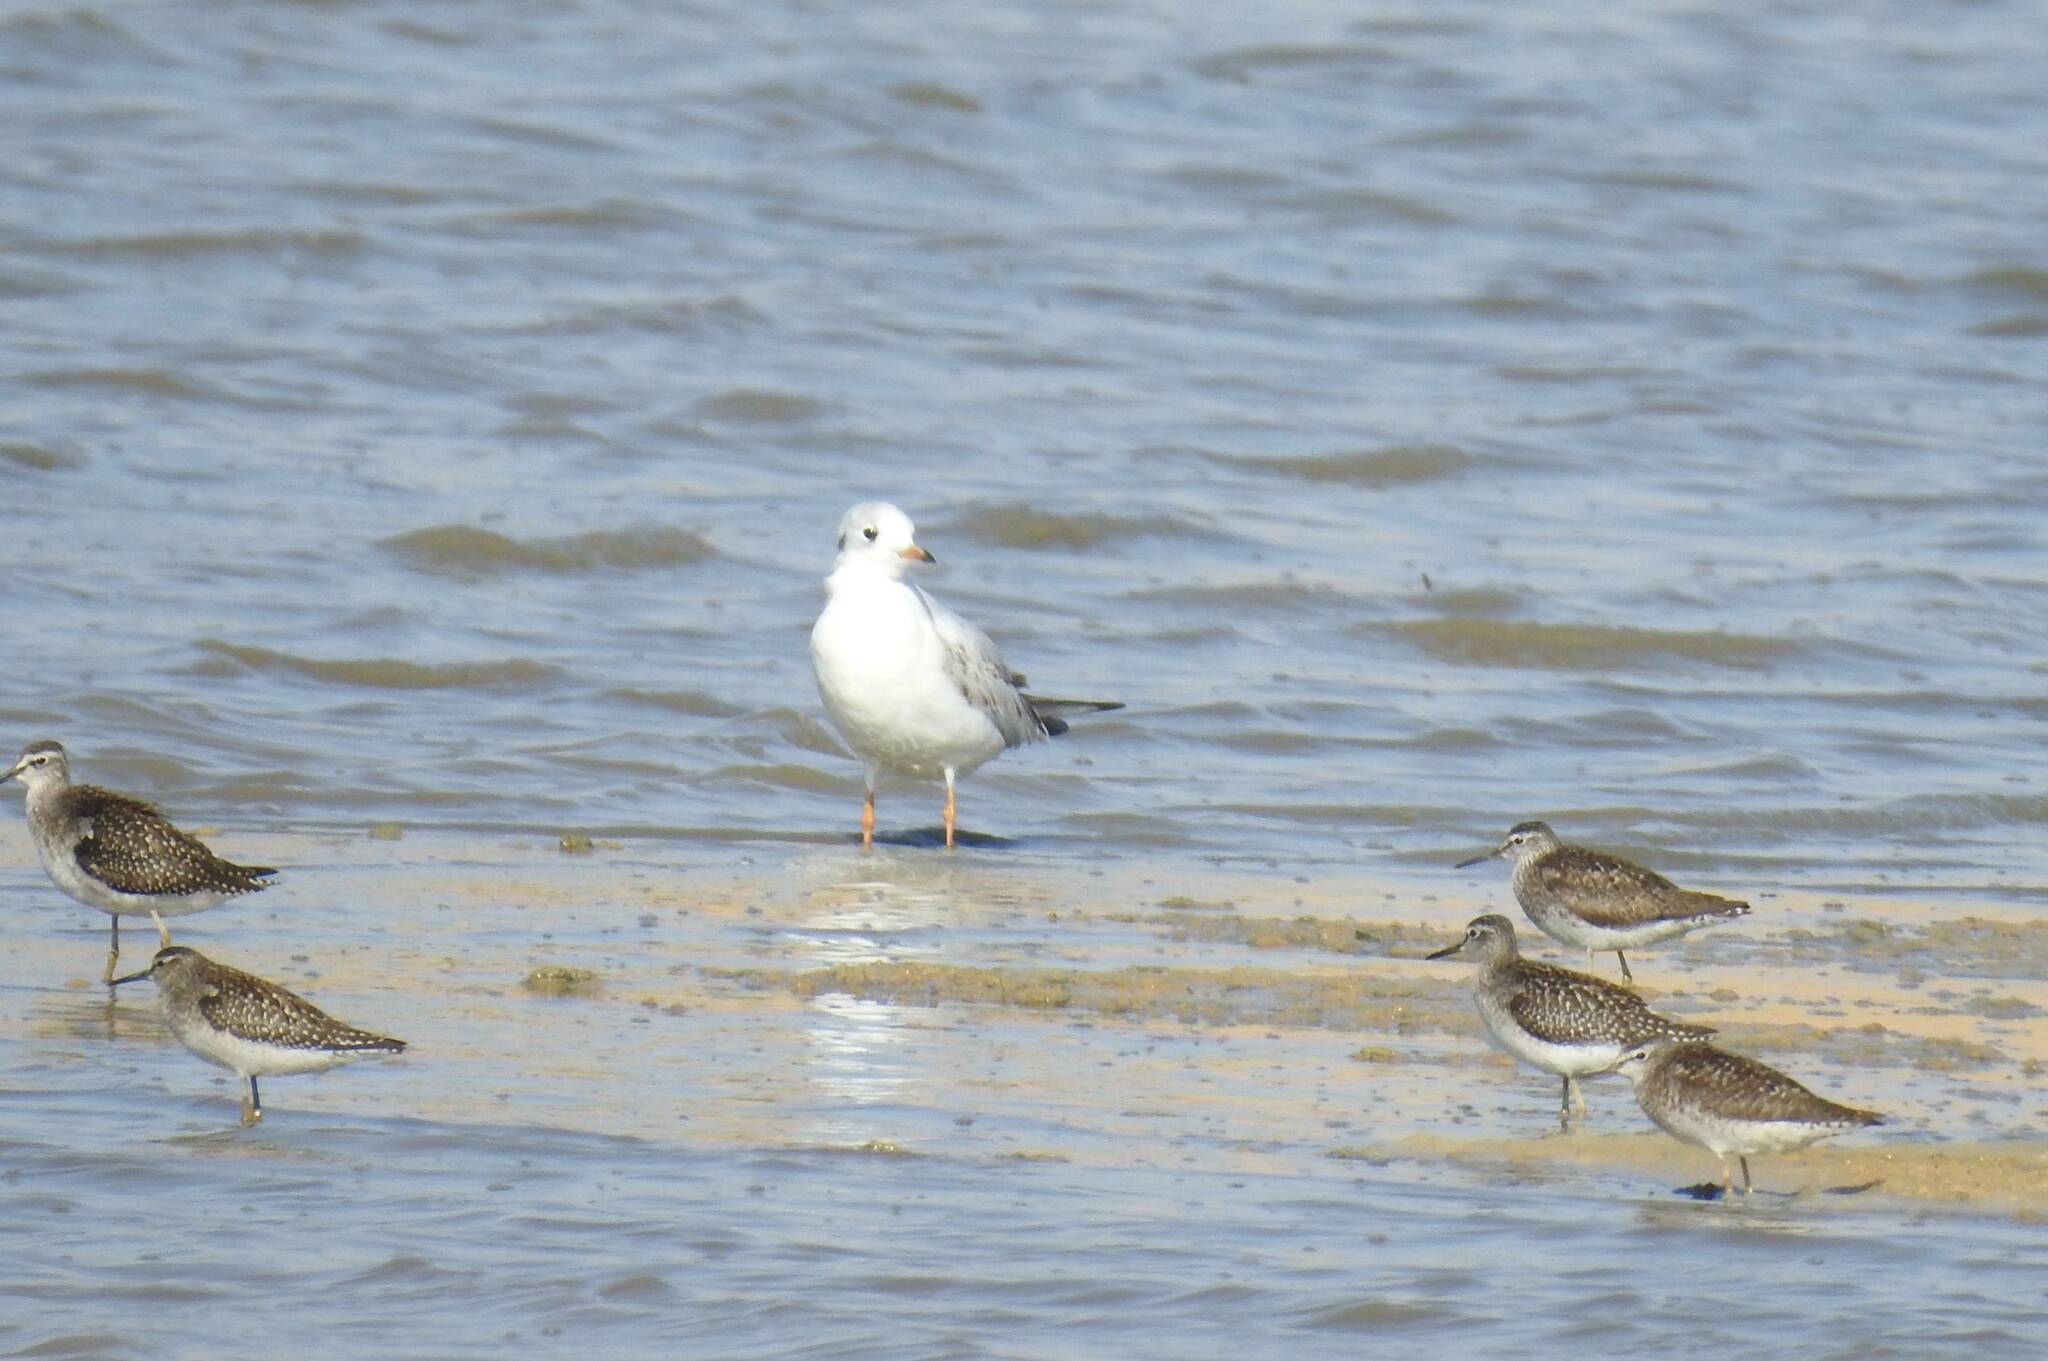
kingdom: Animalia
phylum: Chordata
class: Aves
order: Charadriiformes
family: Laridae
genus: Chroicocephalus
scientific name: Chroicocephalus ridibundus
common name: Black-headed gull
